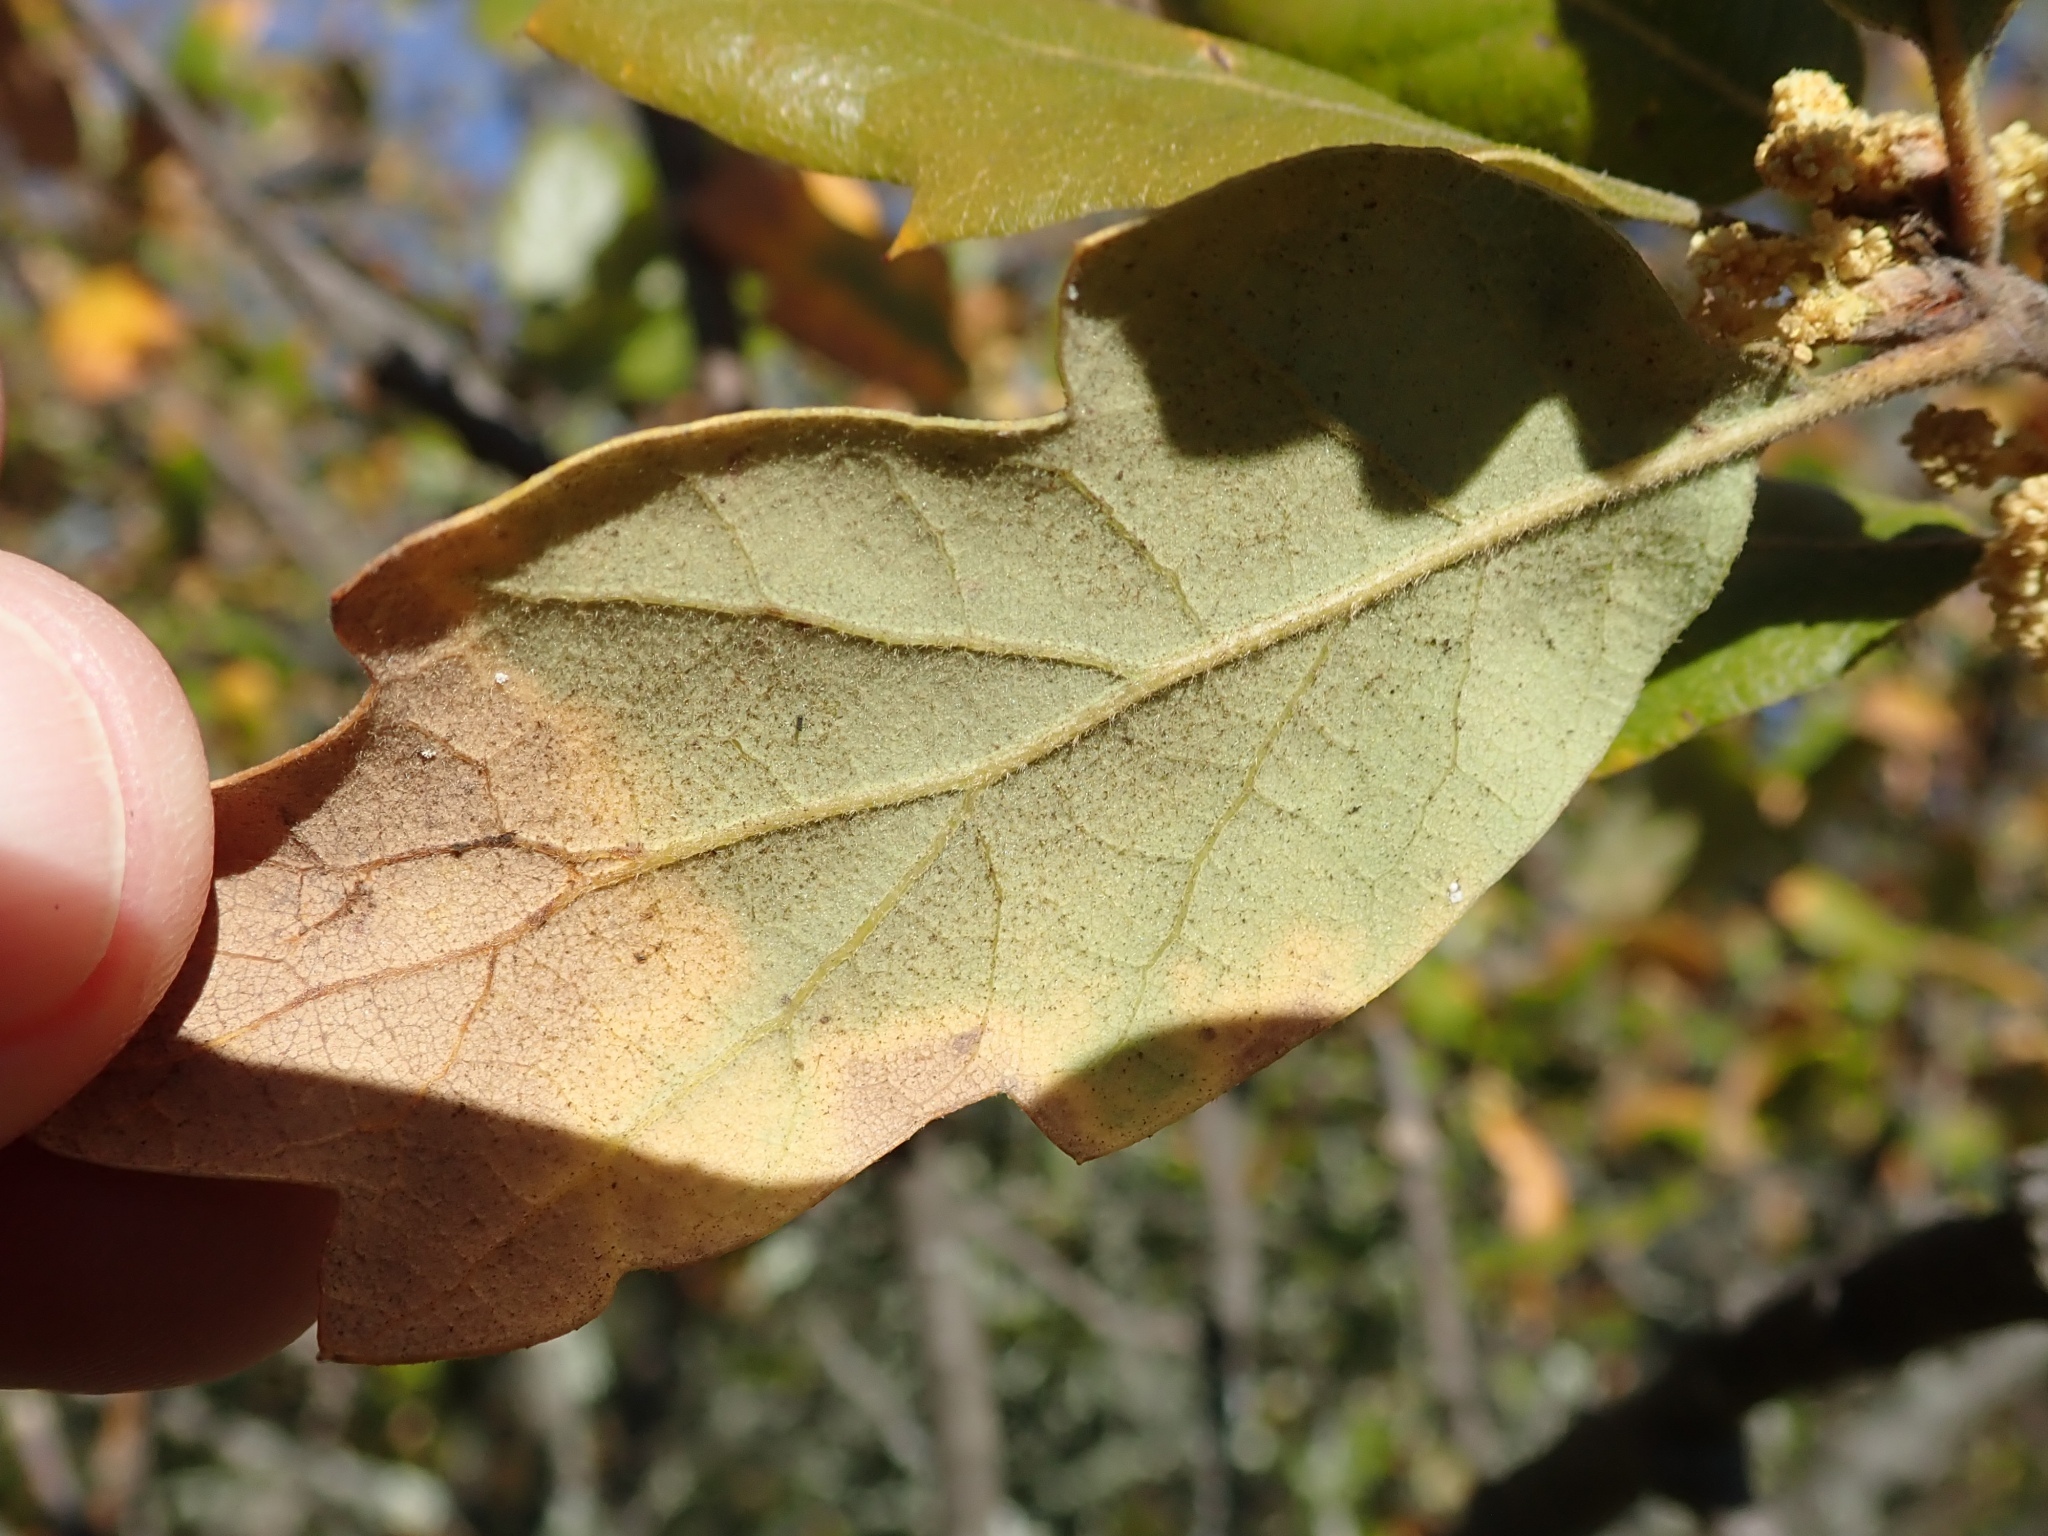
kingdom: Plantae
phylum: Tracheophyta
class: Magnoliopsida
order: Fagales
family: Fagaceae
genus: Quercus
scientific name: Quercus subconvexa
